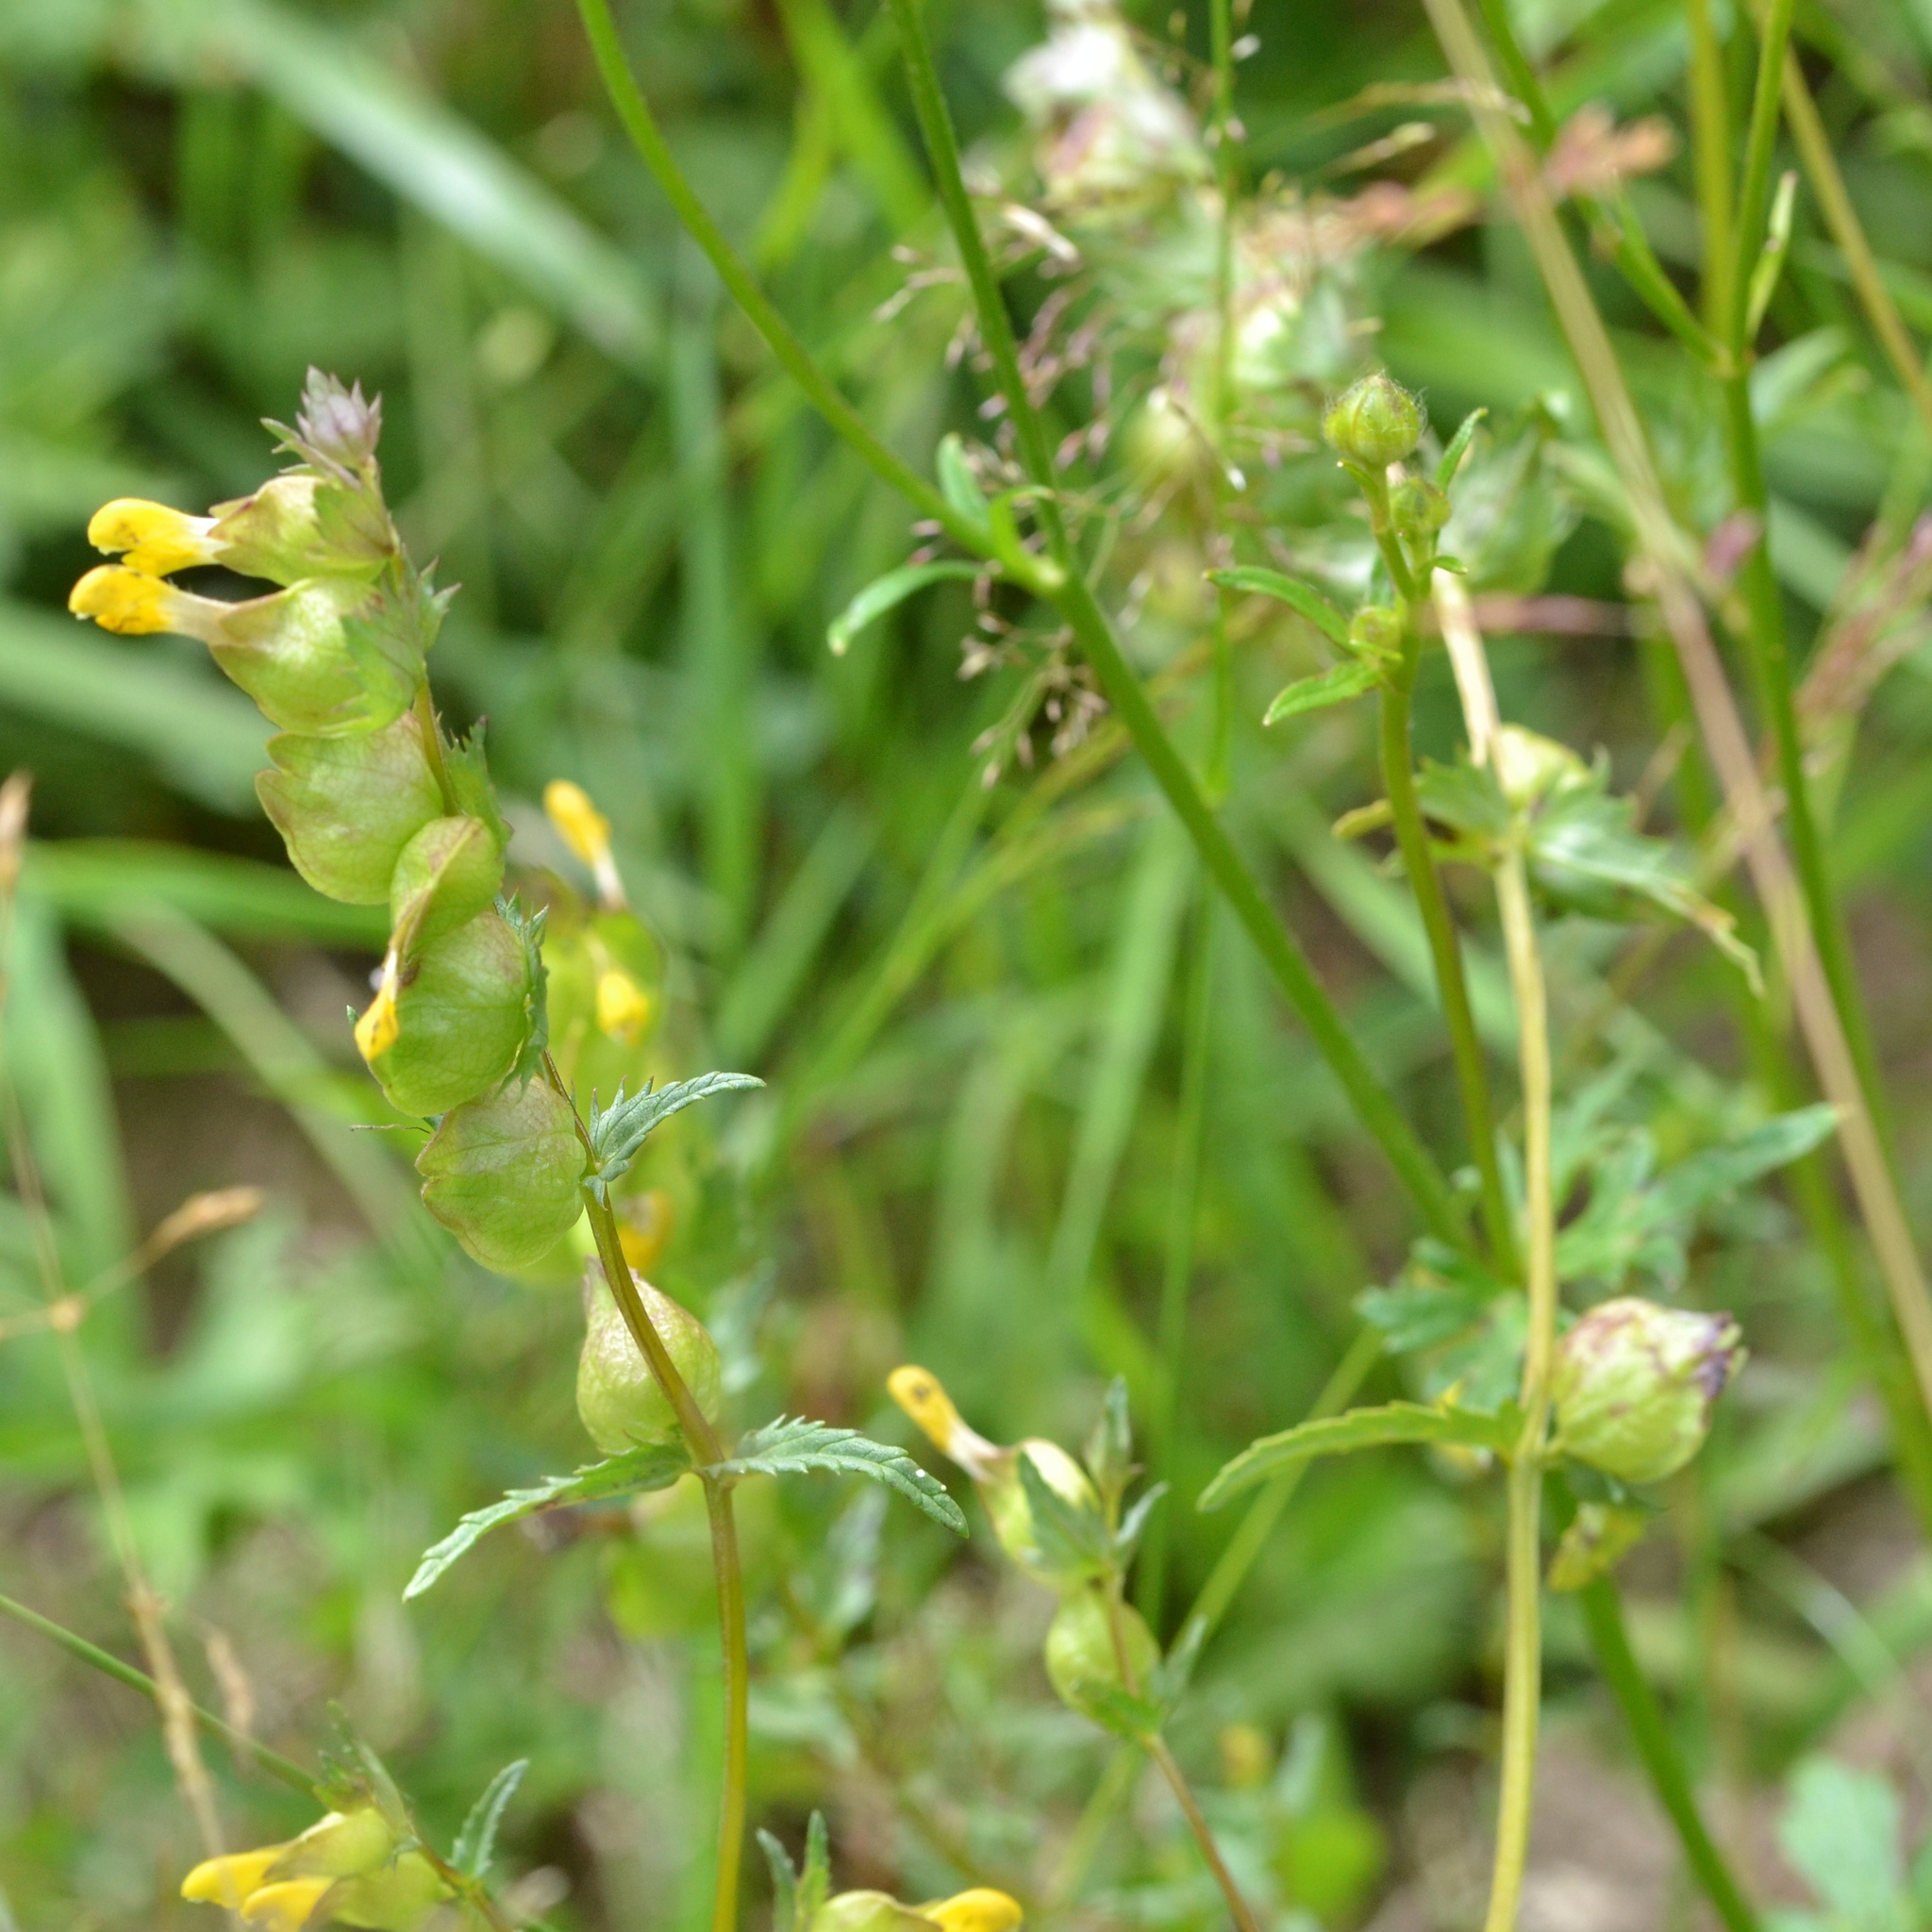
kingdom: Plantae
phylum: Tracheophyta
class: Magnoliopsida
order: Lamiales
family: Orobanchaceae
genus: Rhinanthus
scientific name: Rhinanthus minor
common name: Yellow-rattle
